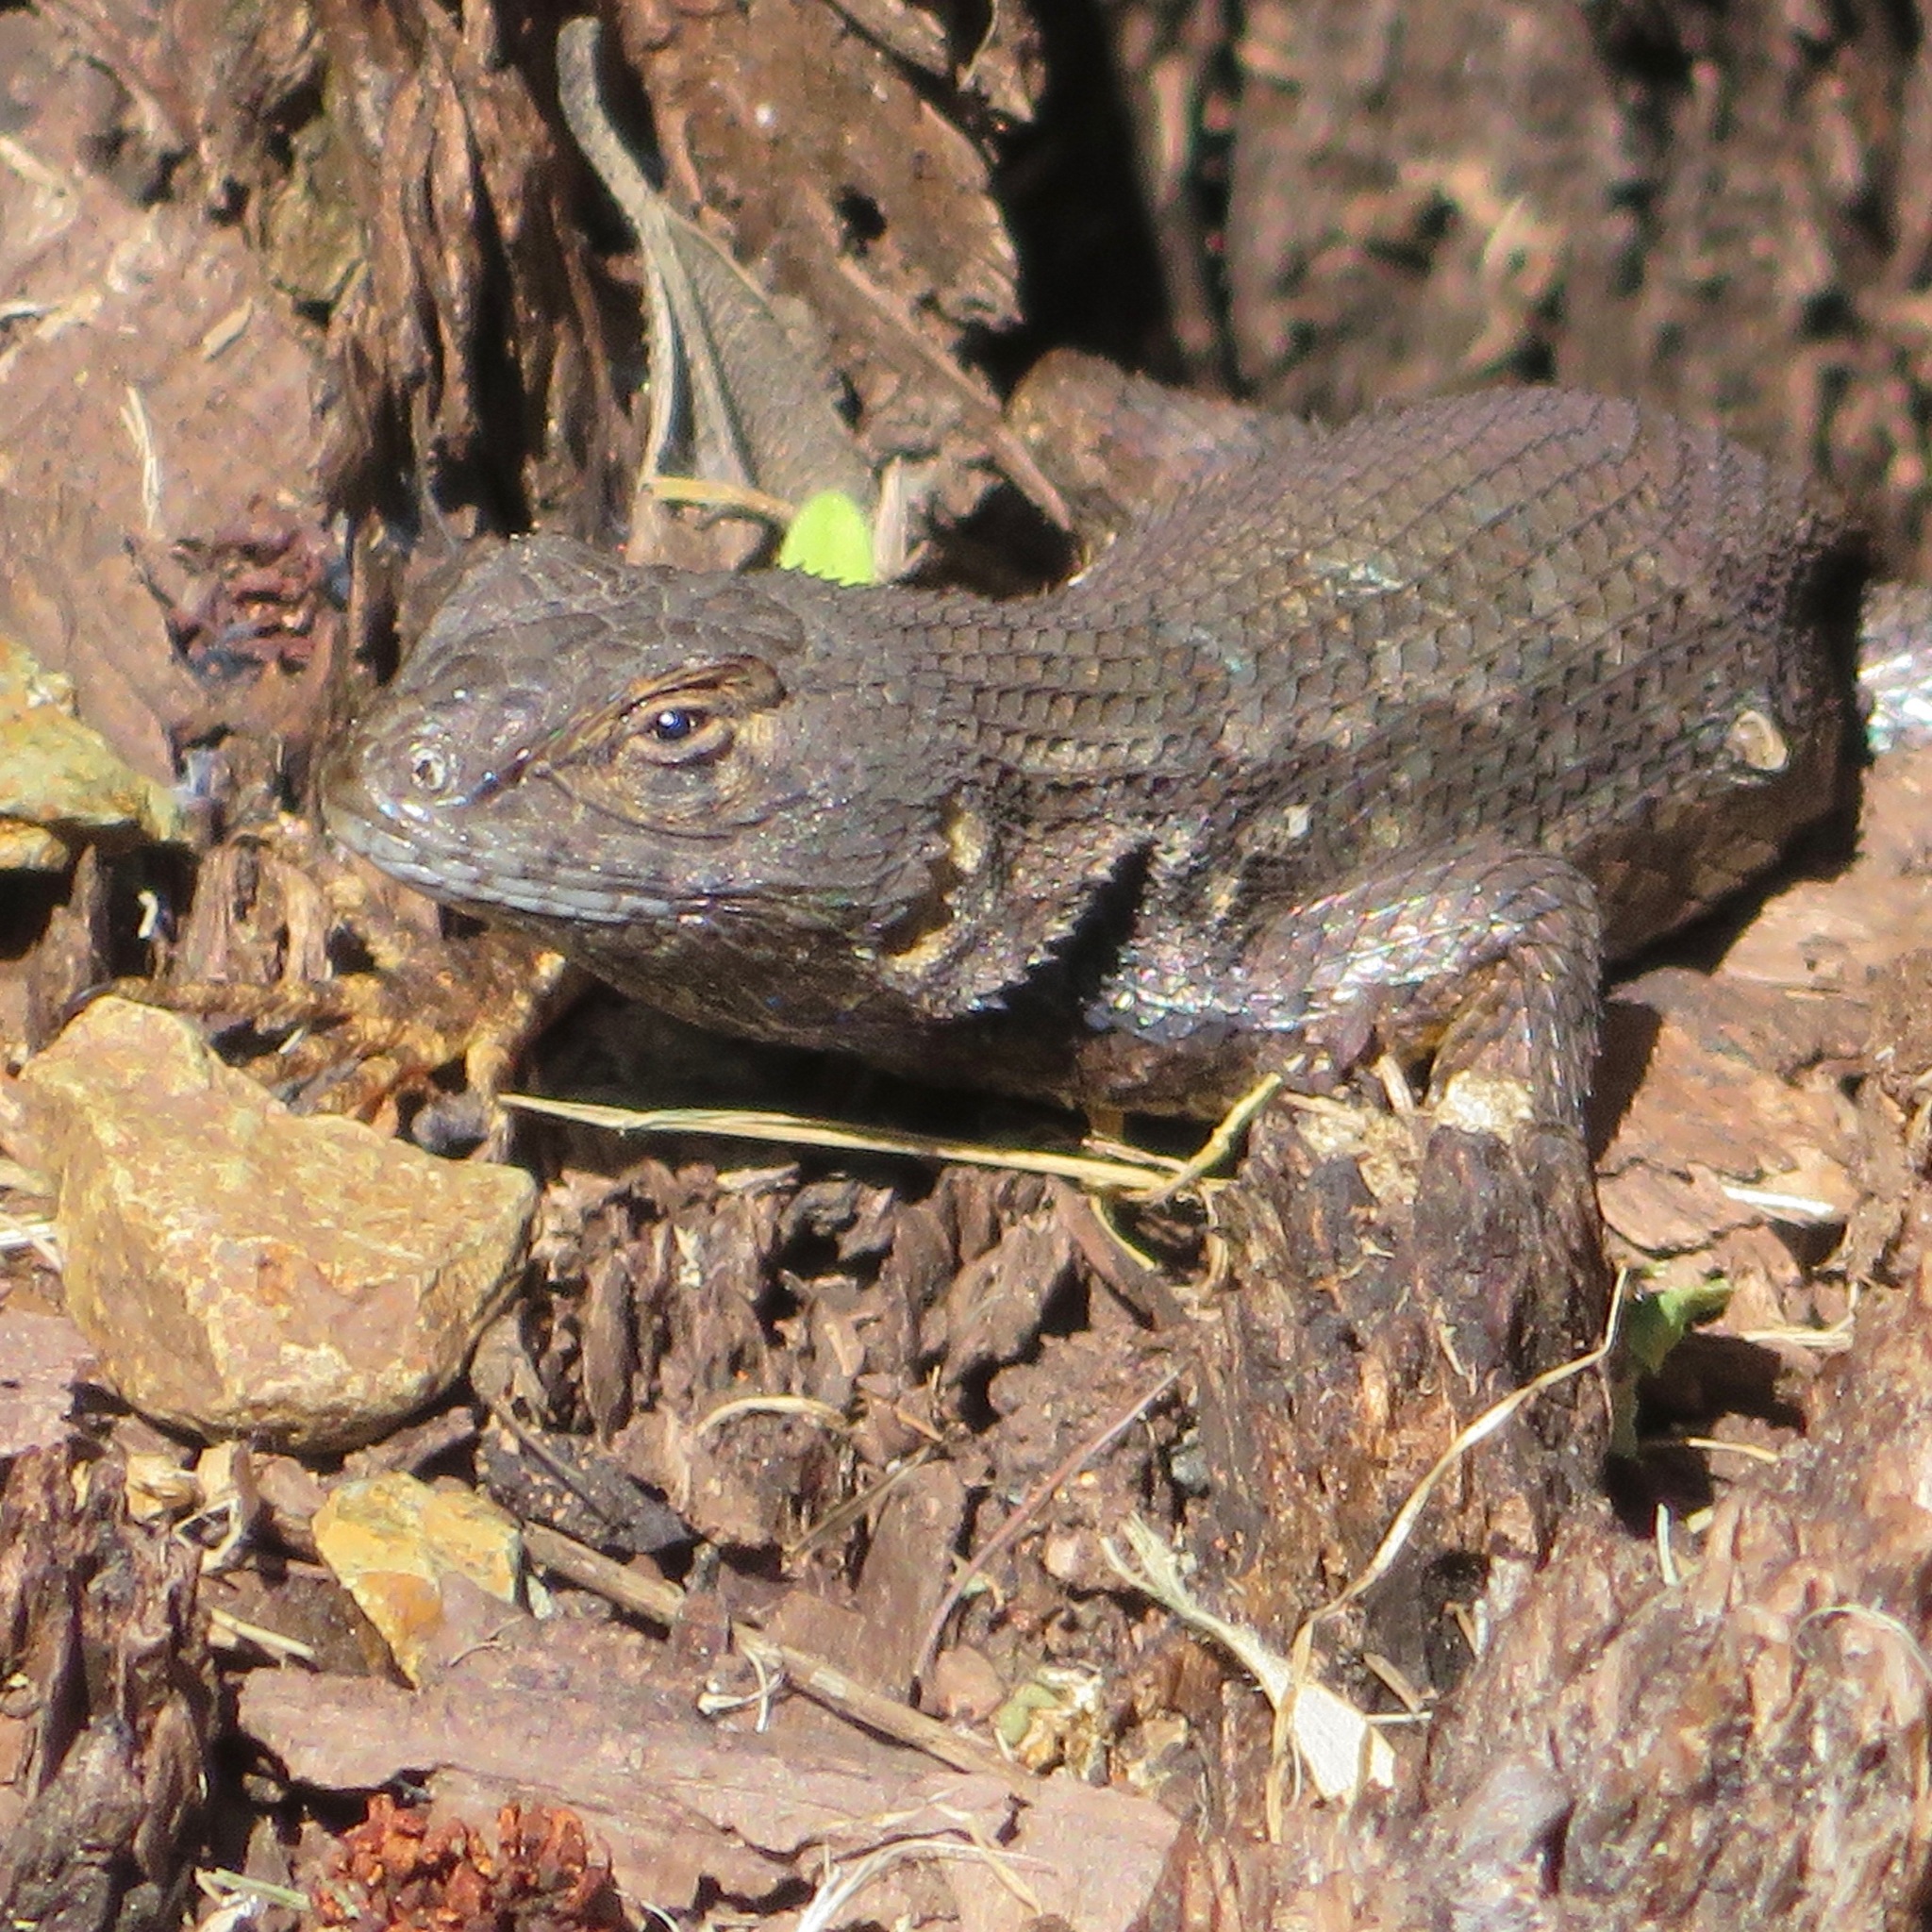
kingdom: Animalia
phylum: Chordata
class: Squamata
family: Phrynosomatidae
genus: Sceloporus
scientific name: Sceloporus occidentalis
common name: Western fence lizard
